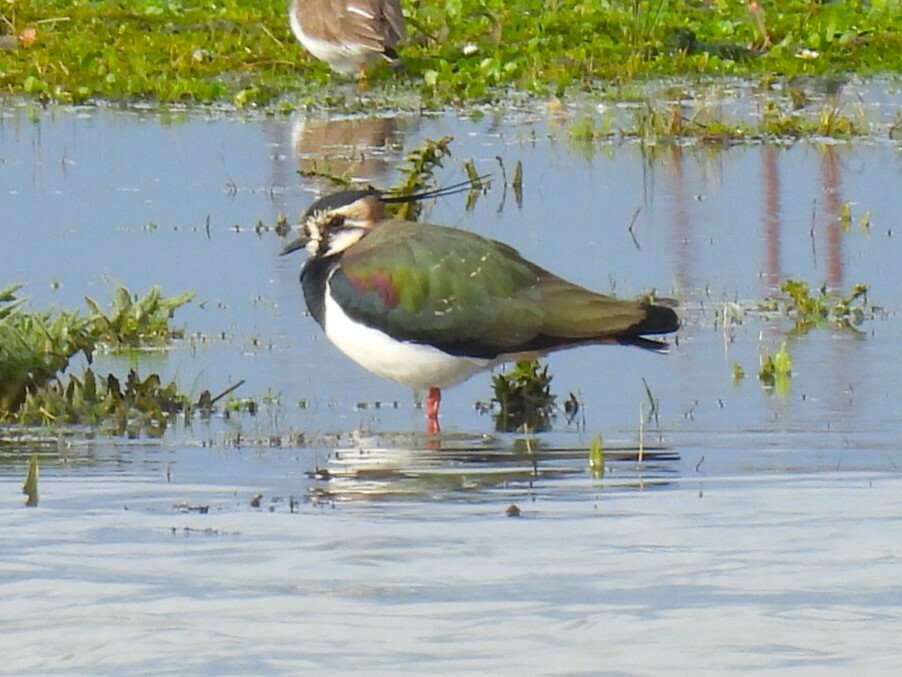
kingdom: Animalia
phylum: Chordata
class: Aves
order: Charadriiformes
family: Charadriidae
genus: Vanellus
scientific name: Vanellus vanellus
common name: Northern lapwing
